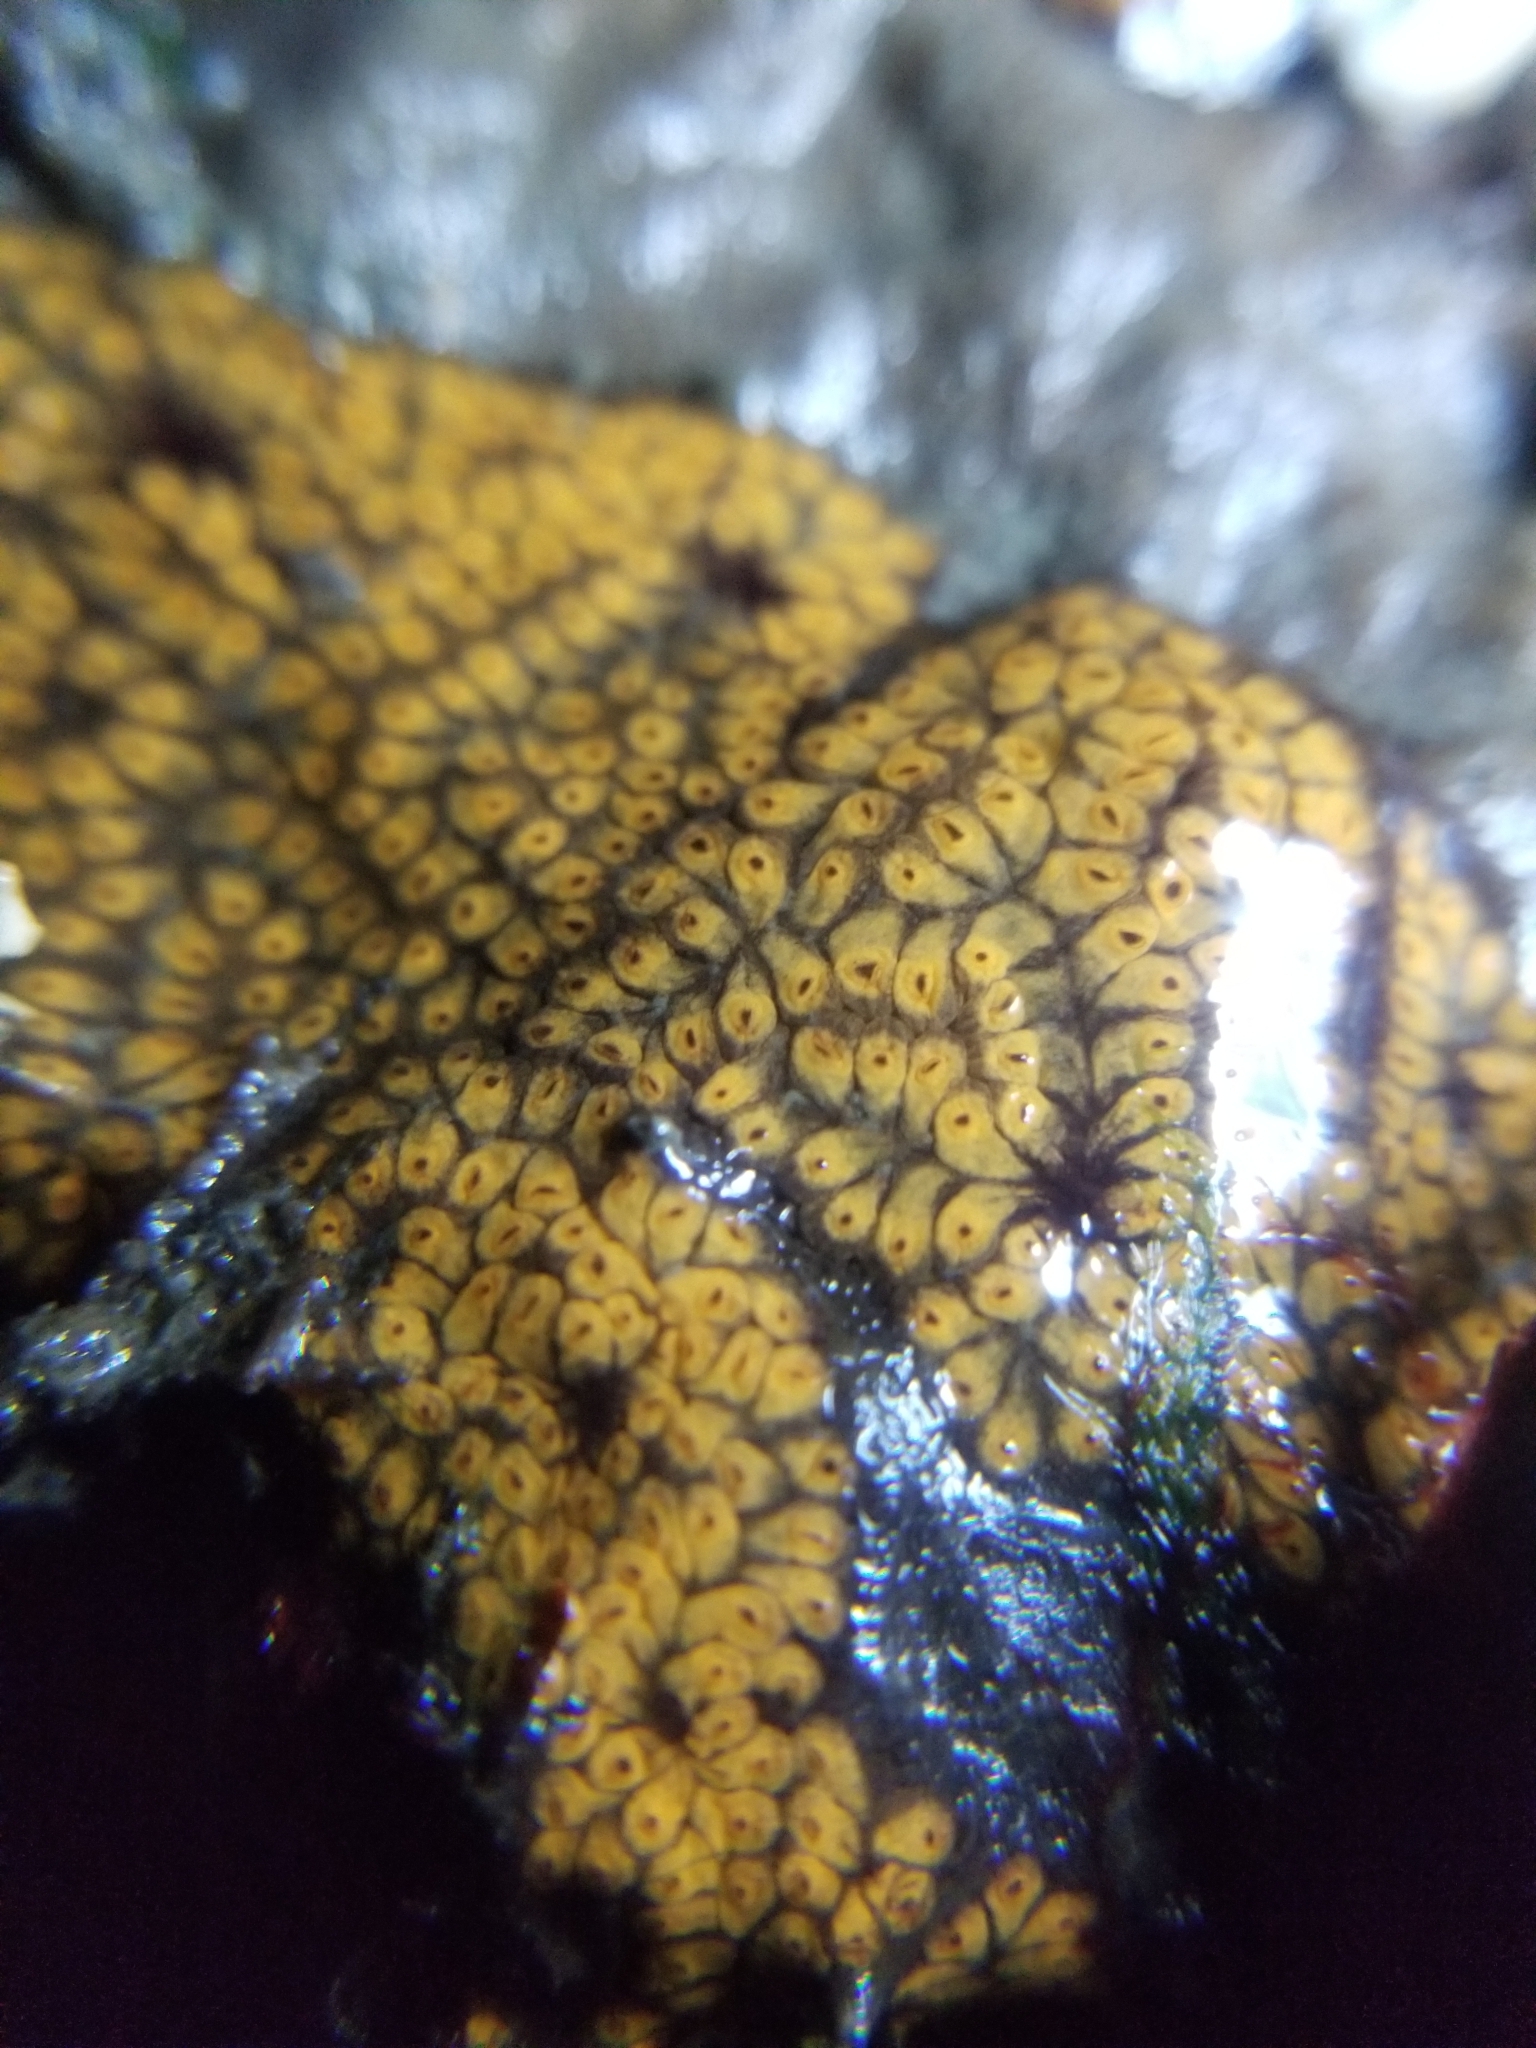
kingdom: Animalia
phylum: Chordata
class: Ascidiacea
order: Stolidobranchia
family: Styelidae
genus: Botrylloides
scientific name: Botrylloides diegensis
